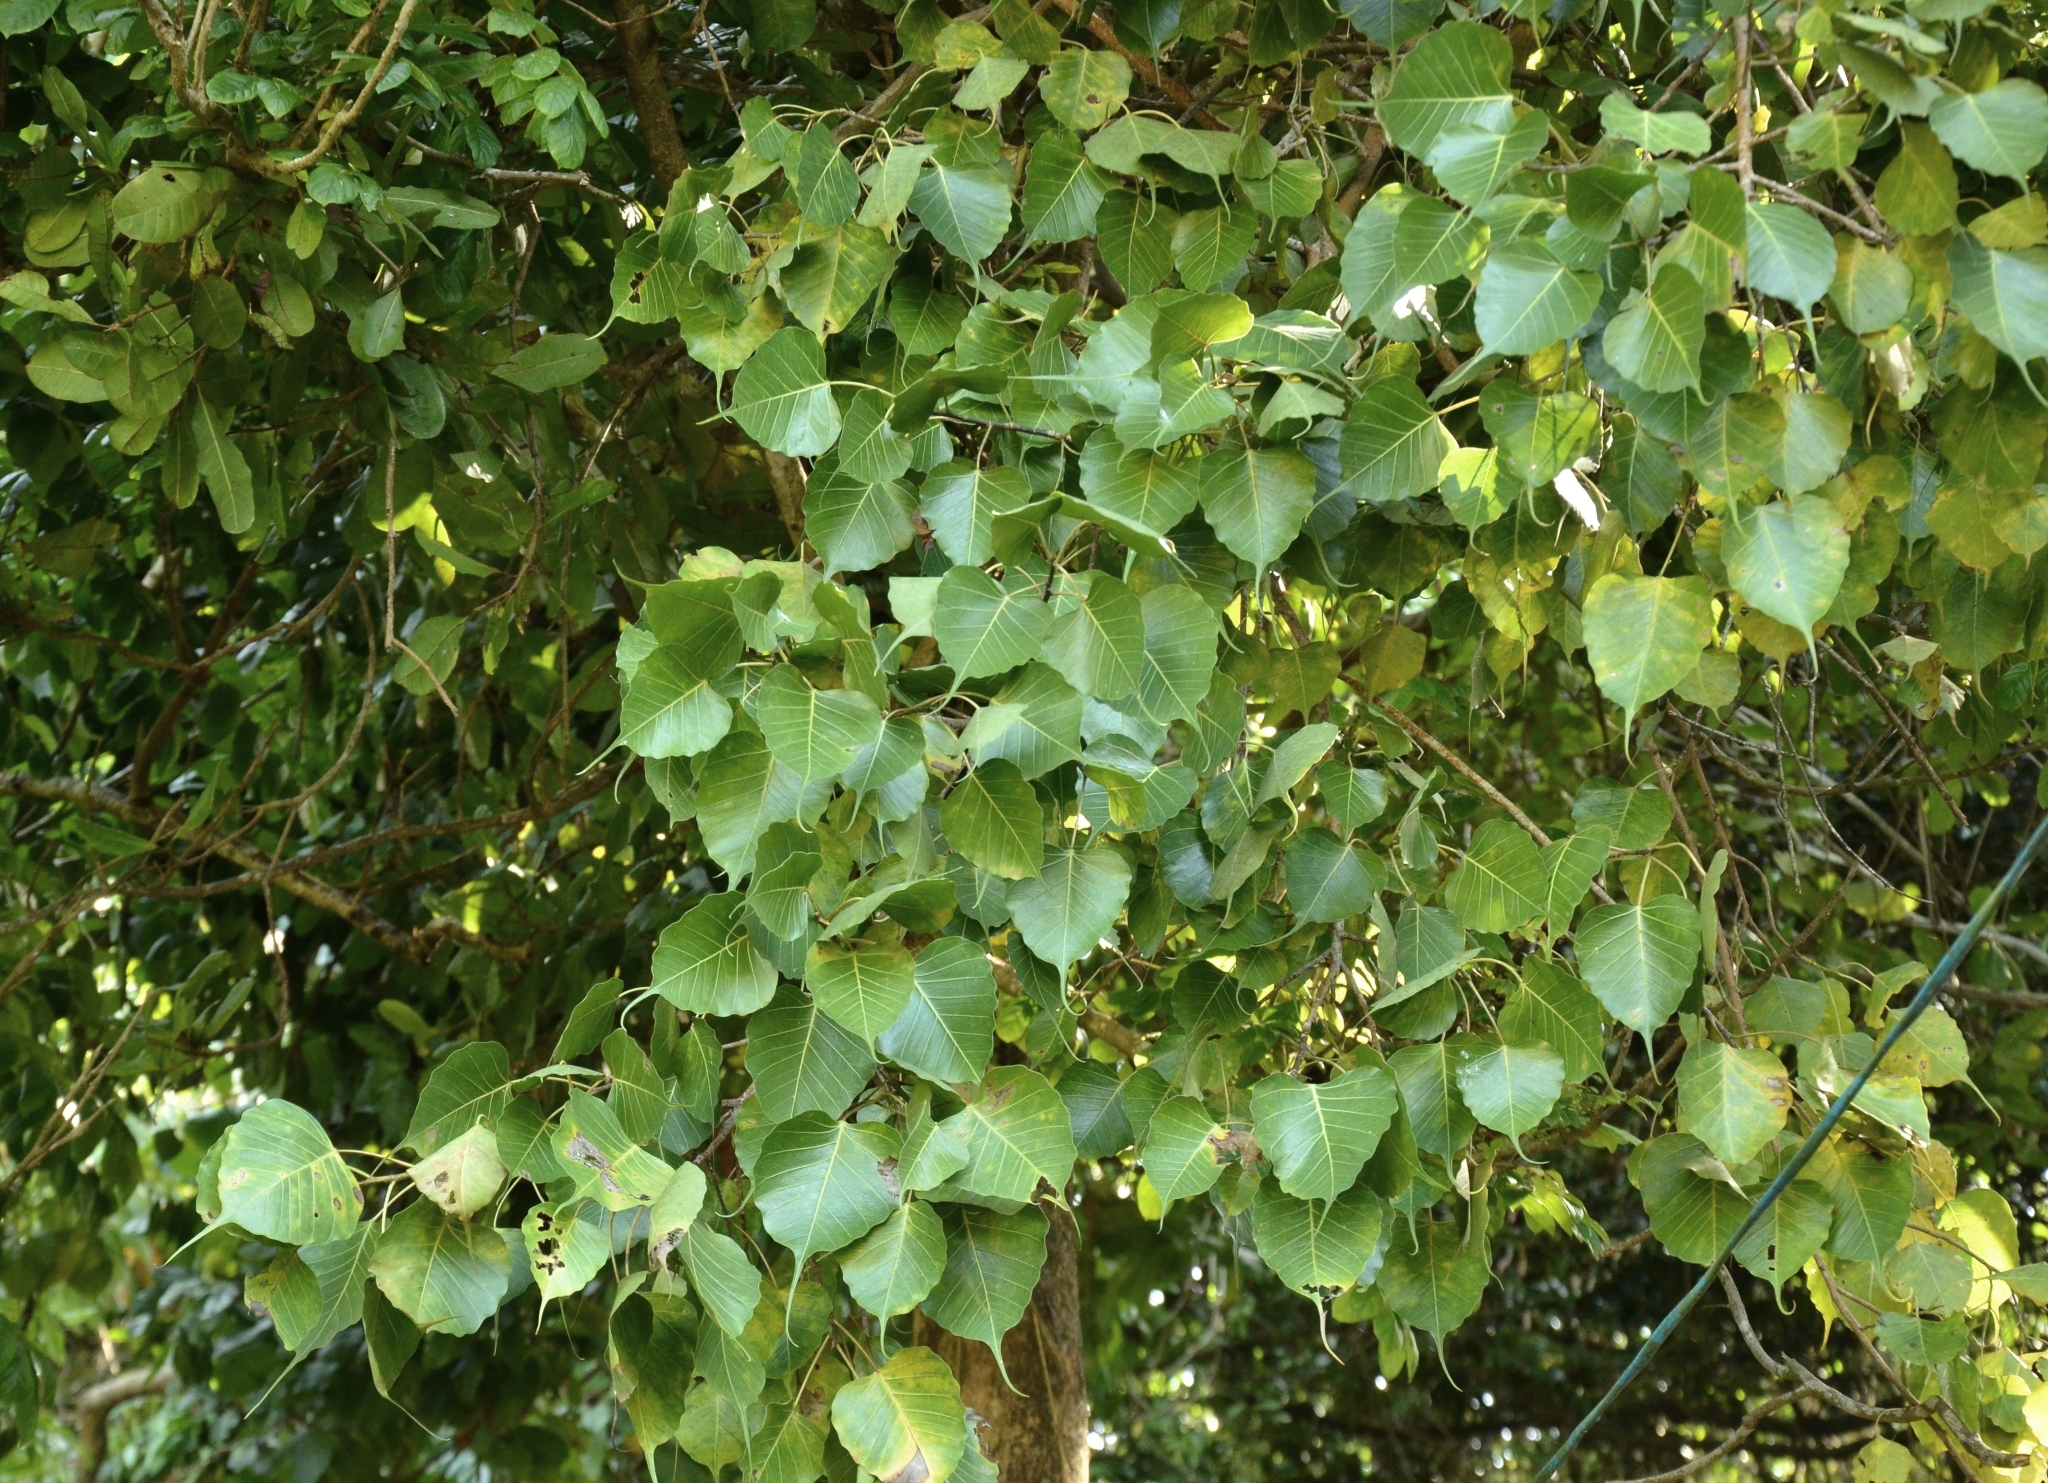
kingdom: Plantae
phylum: Tracheophyta
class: Magnoliopsida
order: Rosales
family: Moraceae
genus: Ficus
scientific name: Ficus religiosa
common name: Bodhi tree
